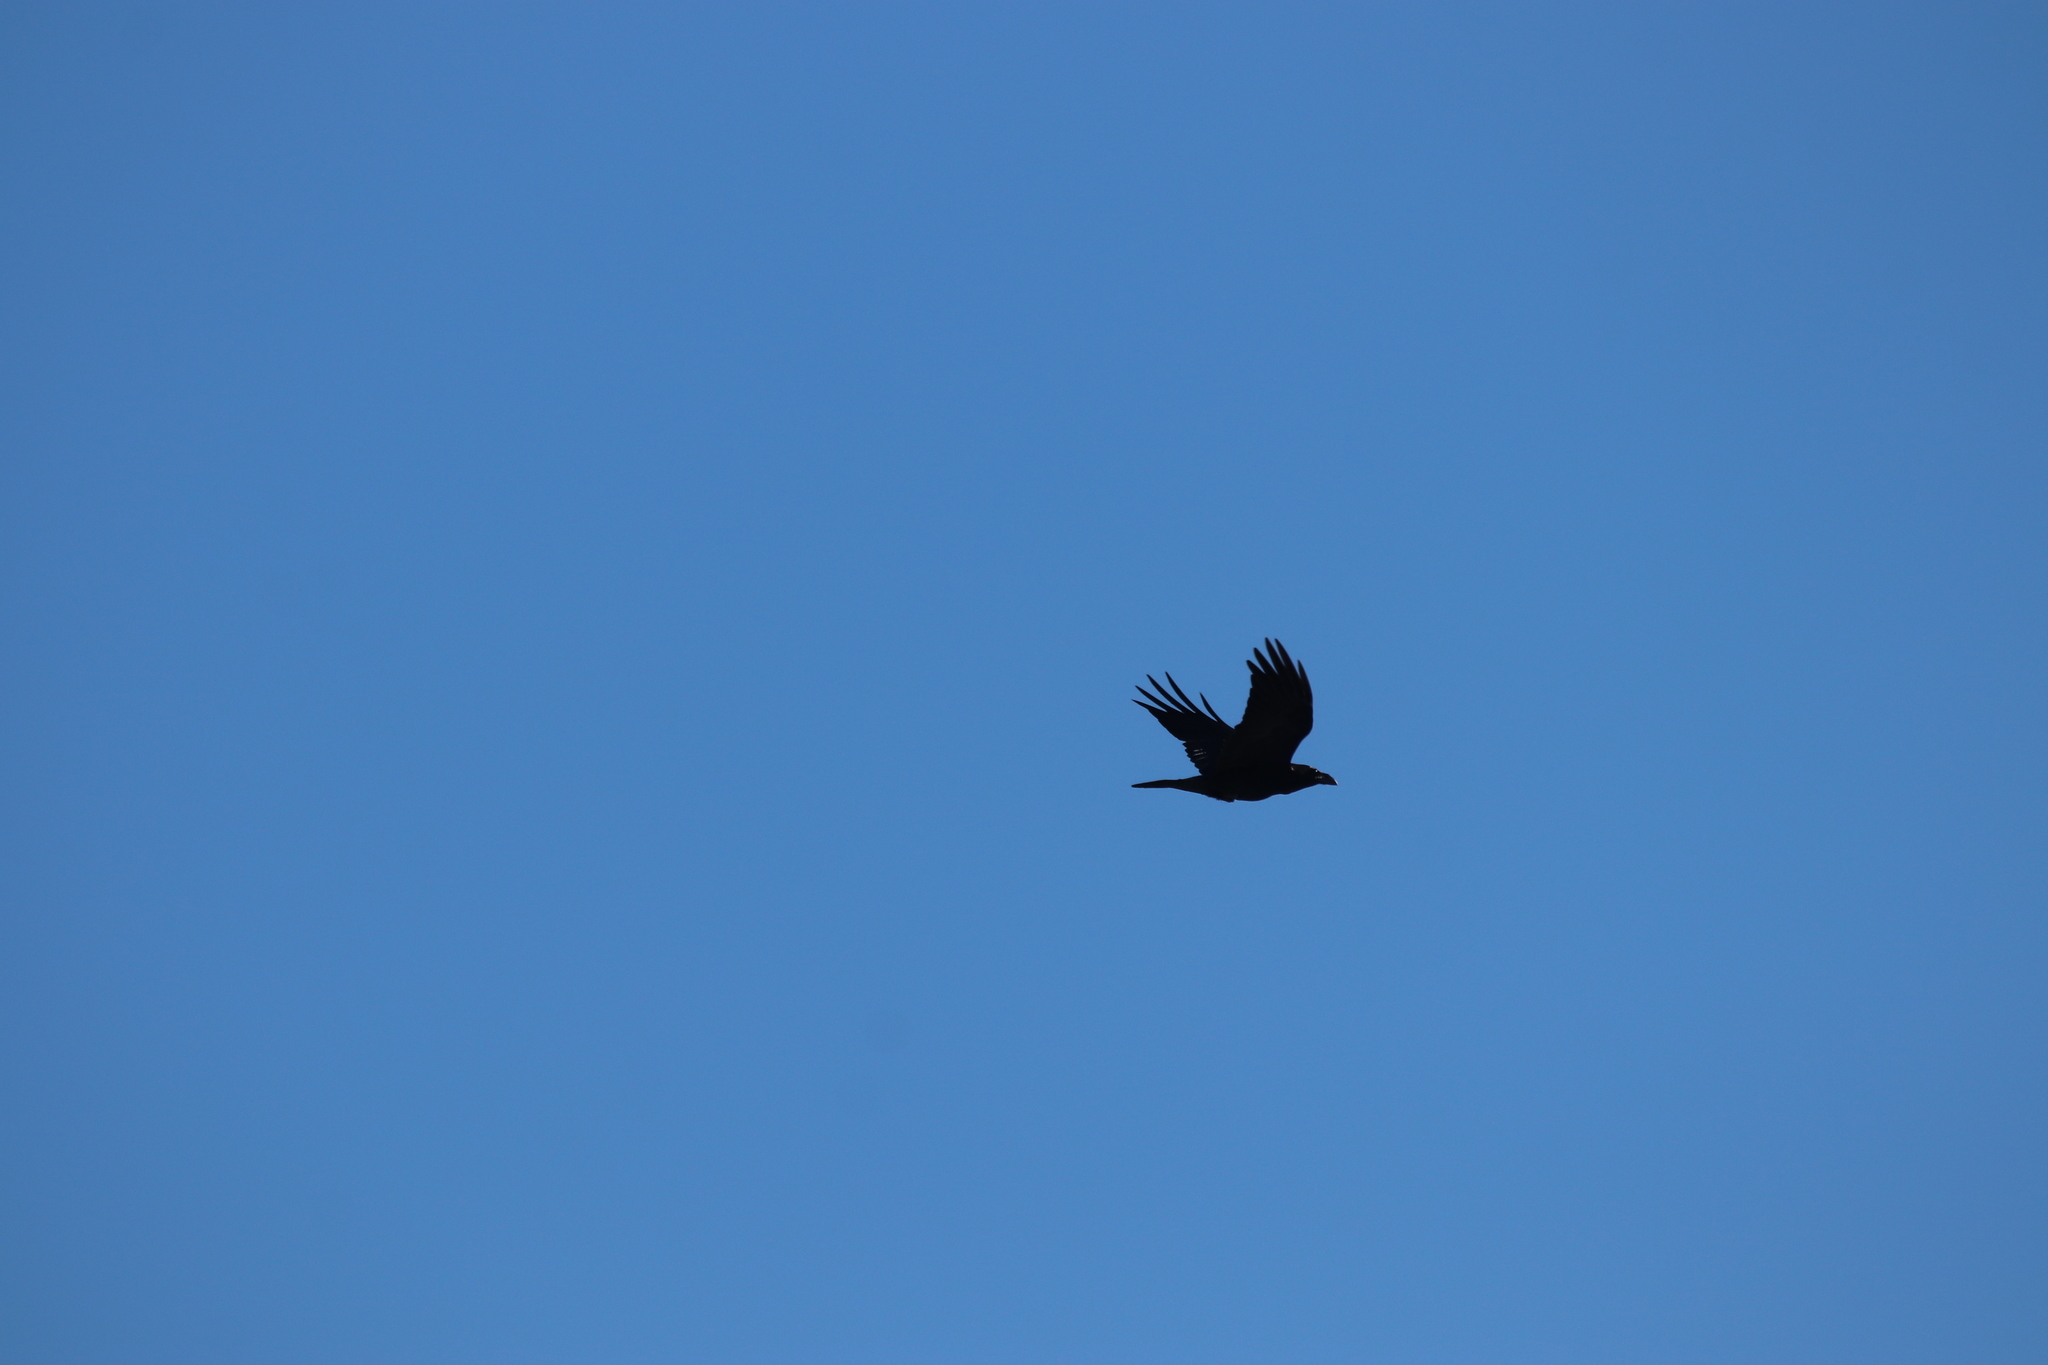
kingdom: Animalia
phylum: Chordata
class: Aves
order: Passeriformes
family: Corvidae
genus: Corvus
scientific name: Corvus corax
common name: Common raven
